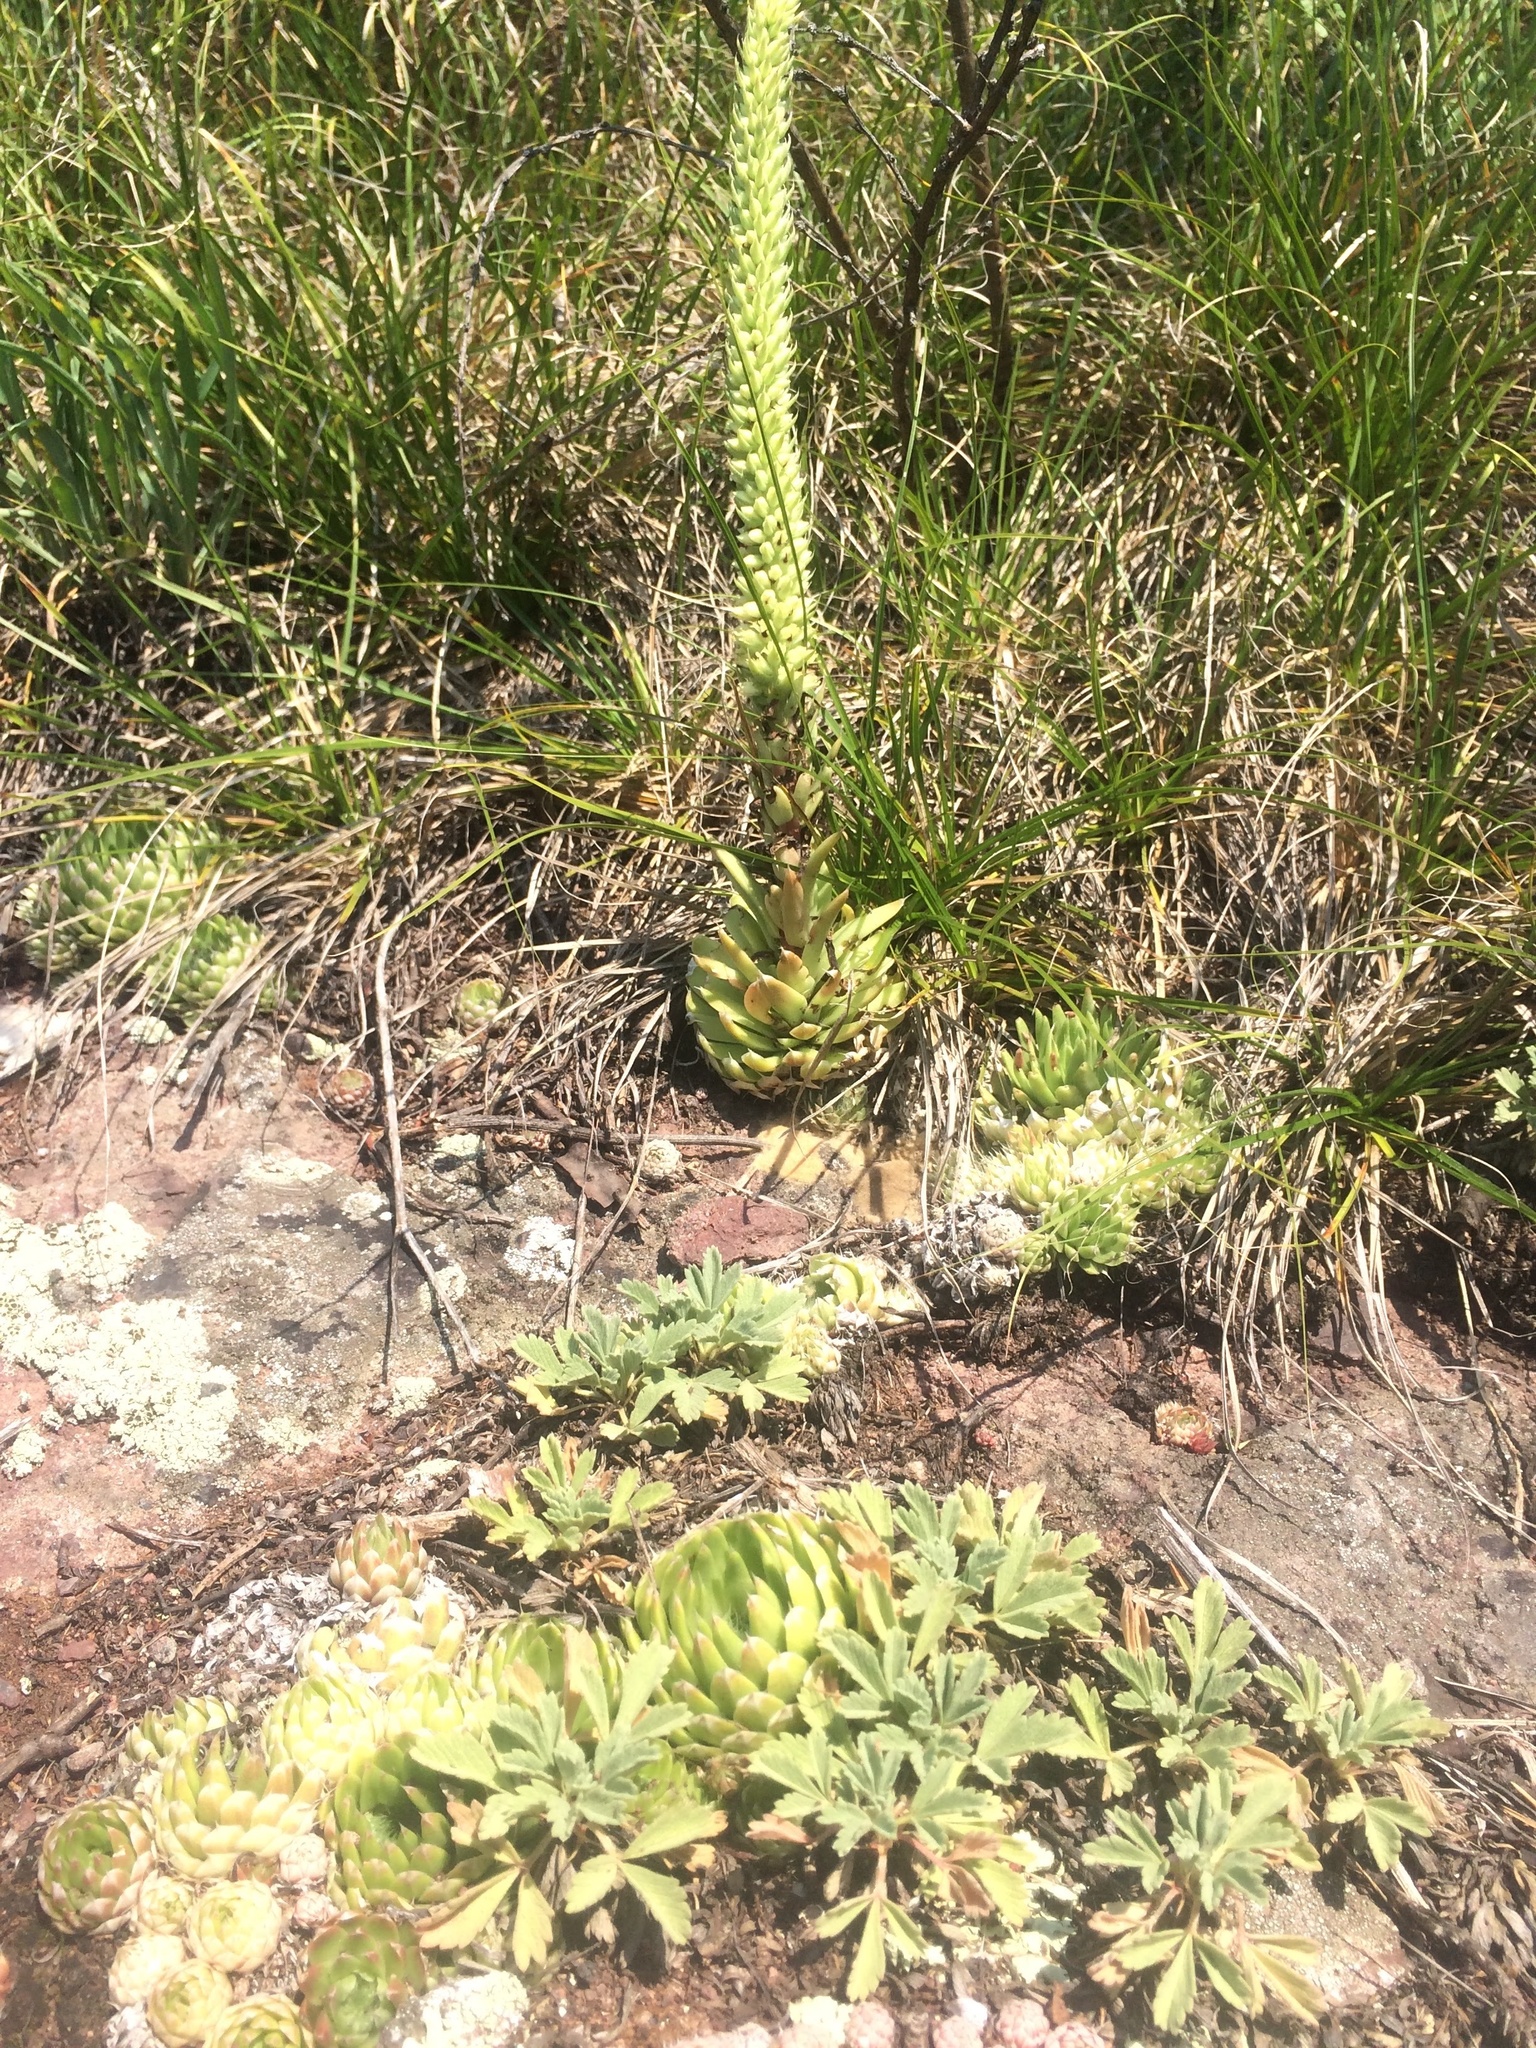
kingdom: Plantae
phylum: Tracheophyta
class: Magnoliopsida
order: Saxifragales
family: Crassulaceae
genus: Orostachys
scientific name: Orostachys spinosa
